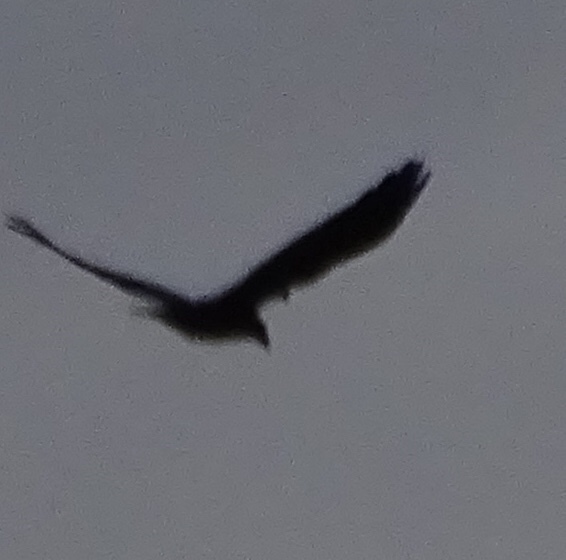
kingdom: Animalia
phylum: Chordata
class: Aves
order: Passeriformes
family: Corvidae
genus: Corvus
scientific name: Corvus corax
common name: Common raven
